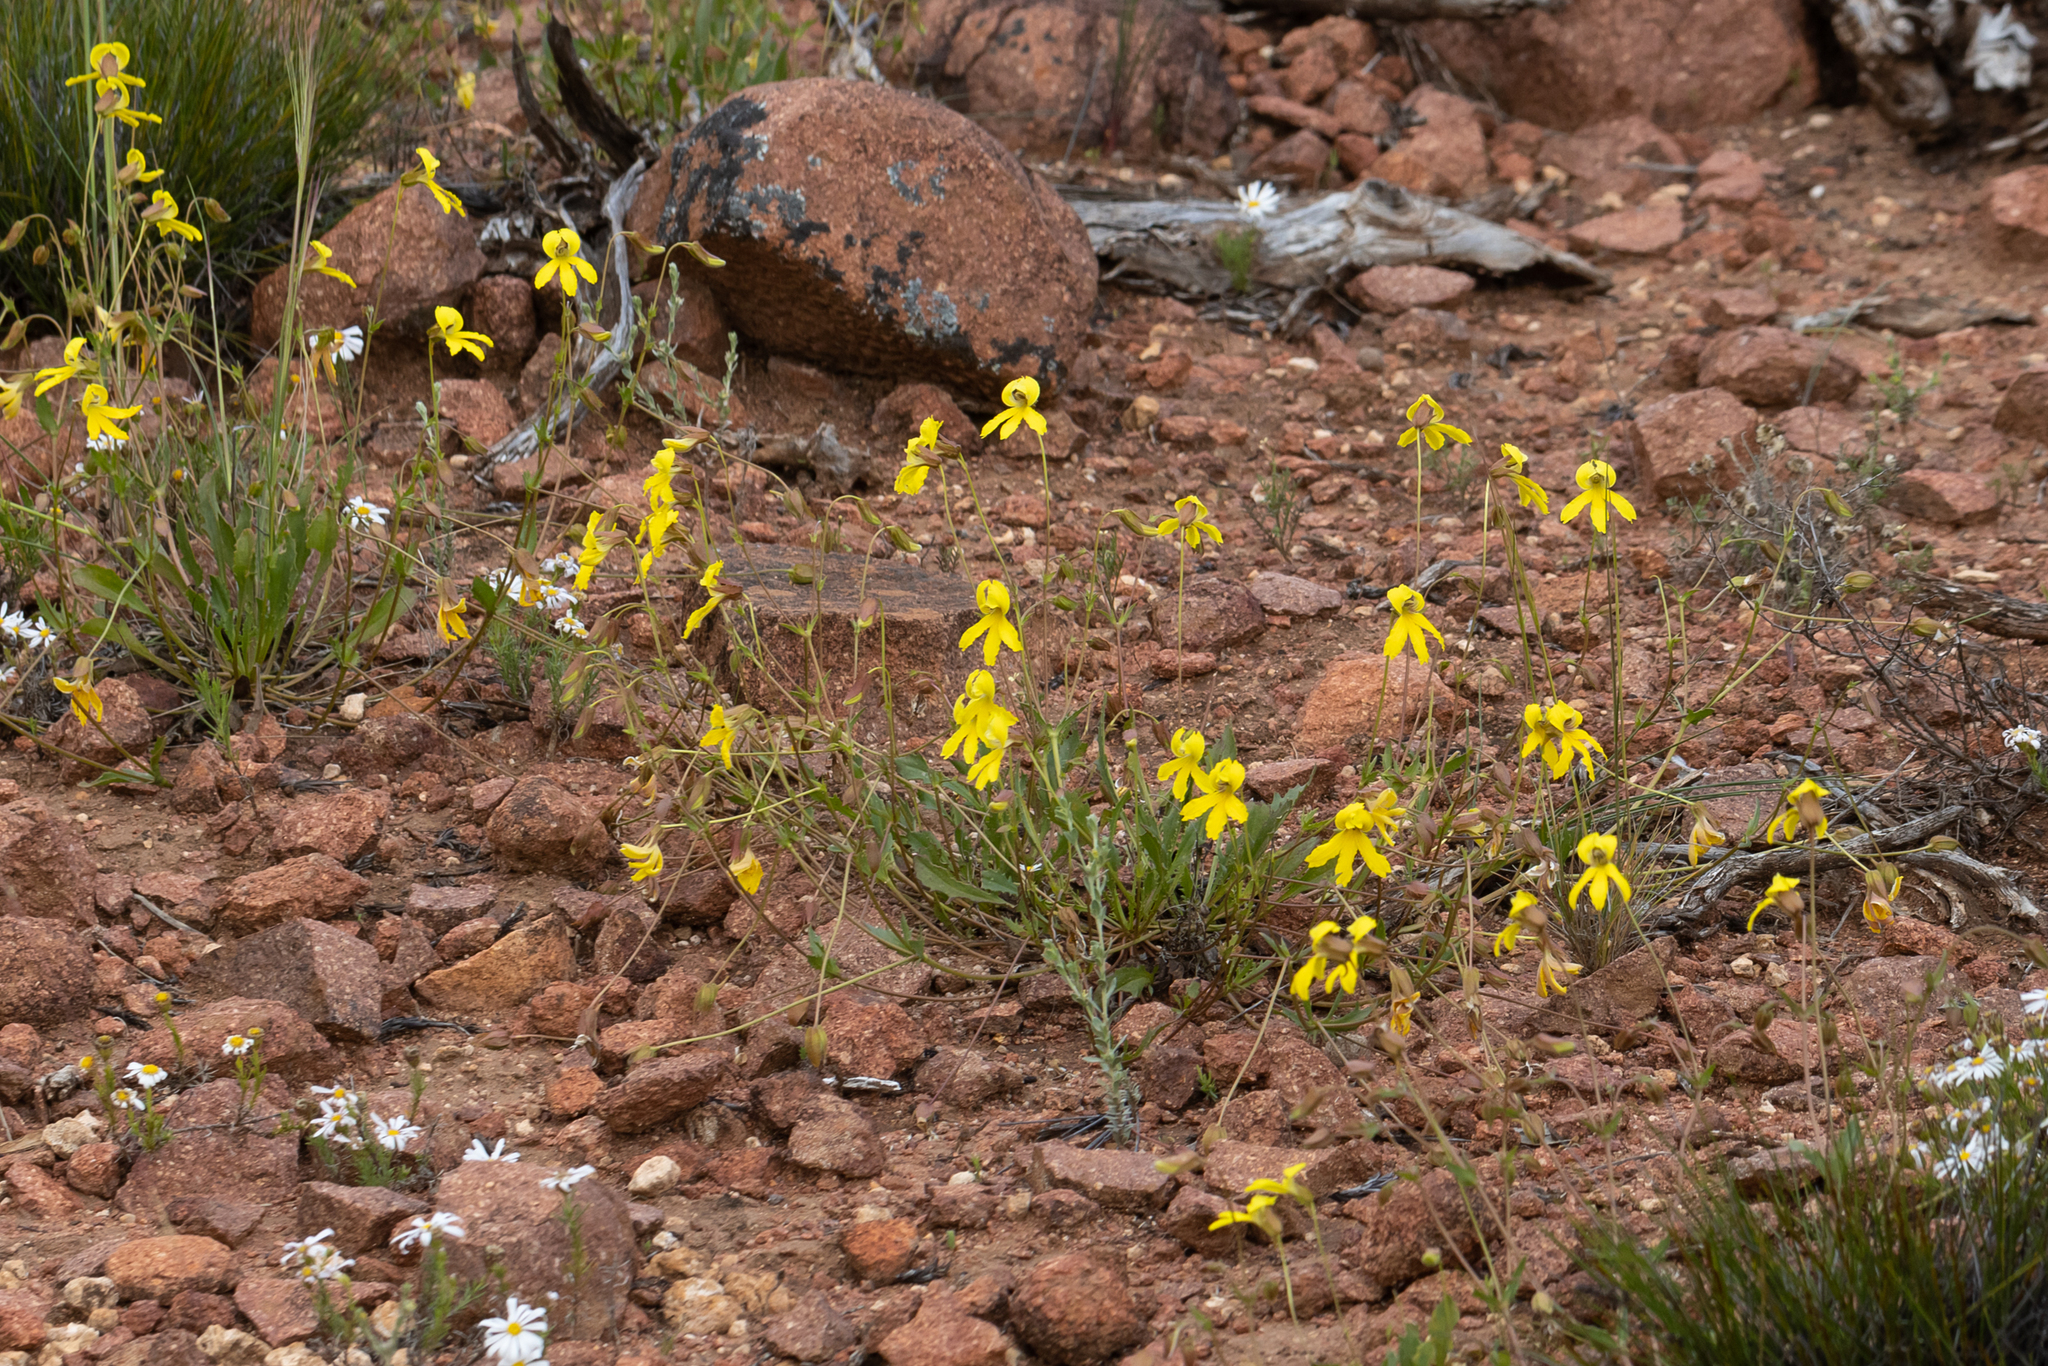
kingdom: Plantae
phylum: Tracheophyta
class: Magnoliopsida
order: Asterales
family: Goodeniaceae
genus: Goodenia
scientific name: Goodenia arguta
